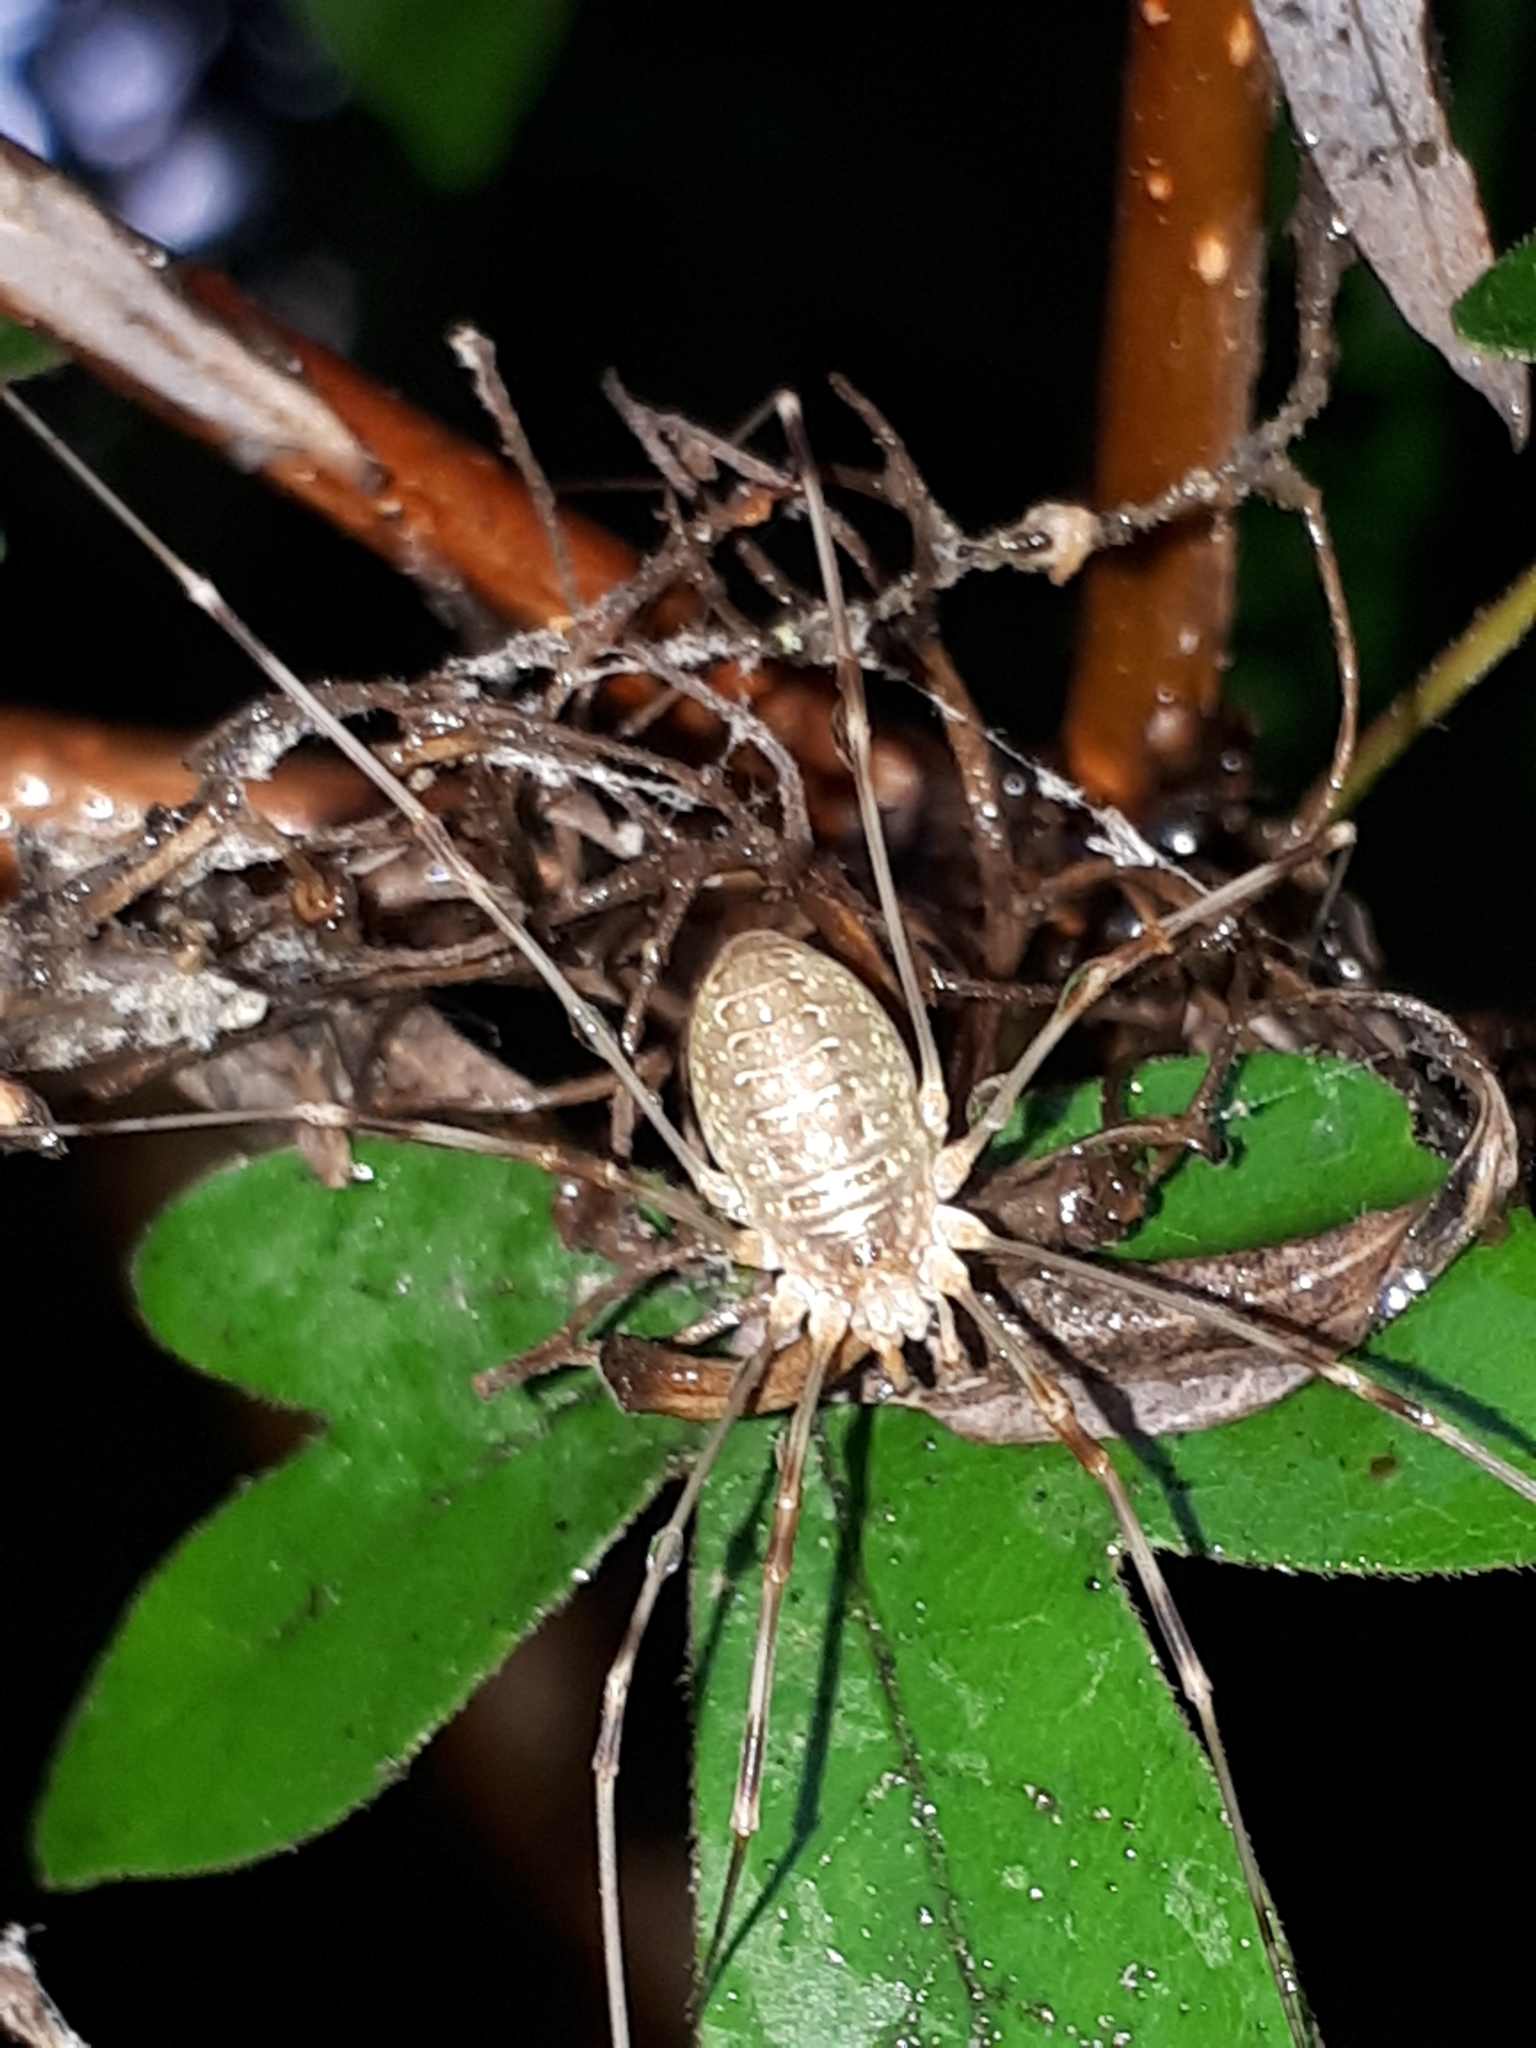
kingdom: Animalia
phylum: Arthropoda
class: Arachnida
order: Opiliones
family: Phalangiidae
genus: Opilio
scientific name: Opilio canestrinii
